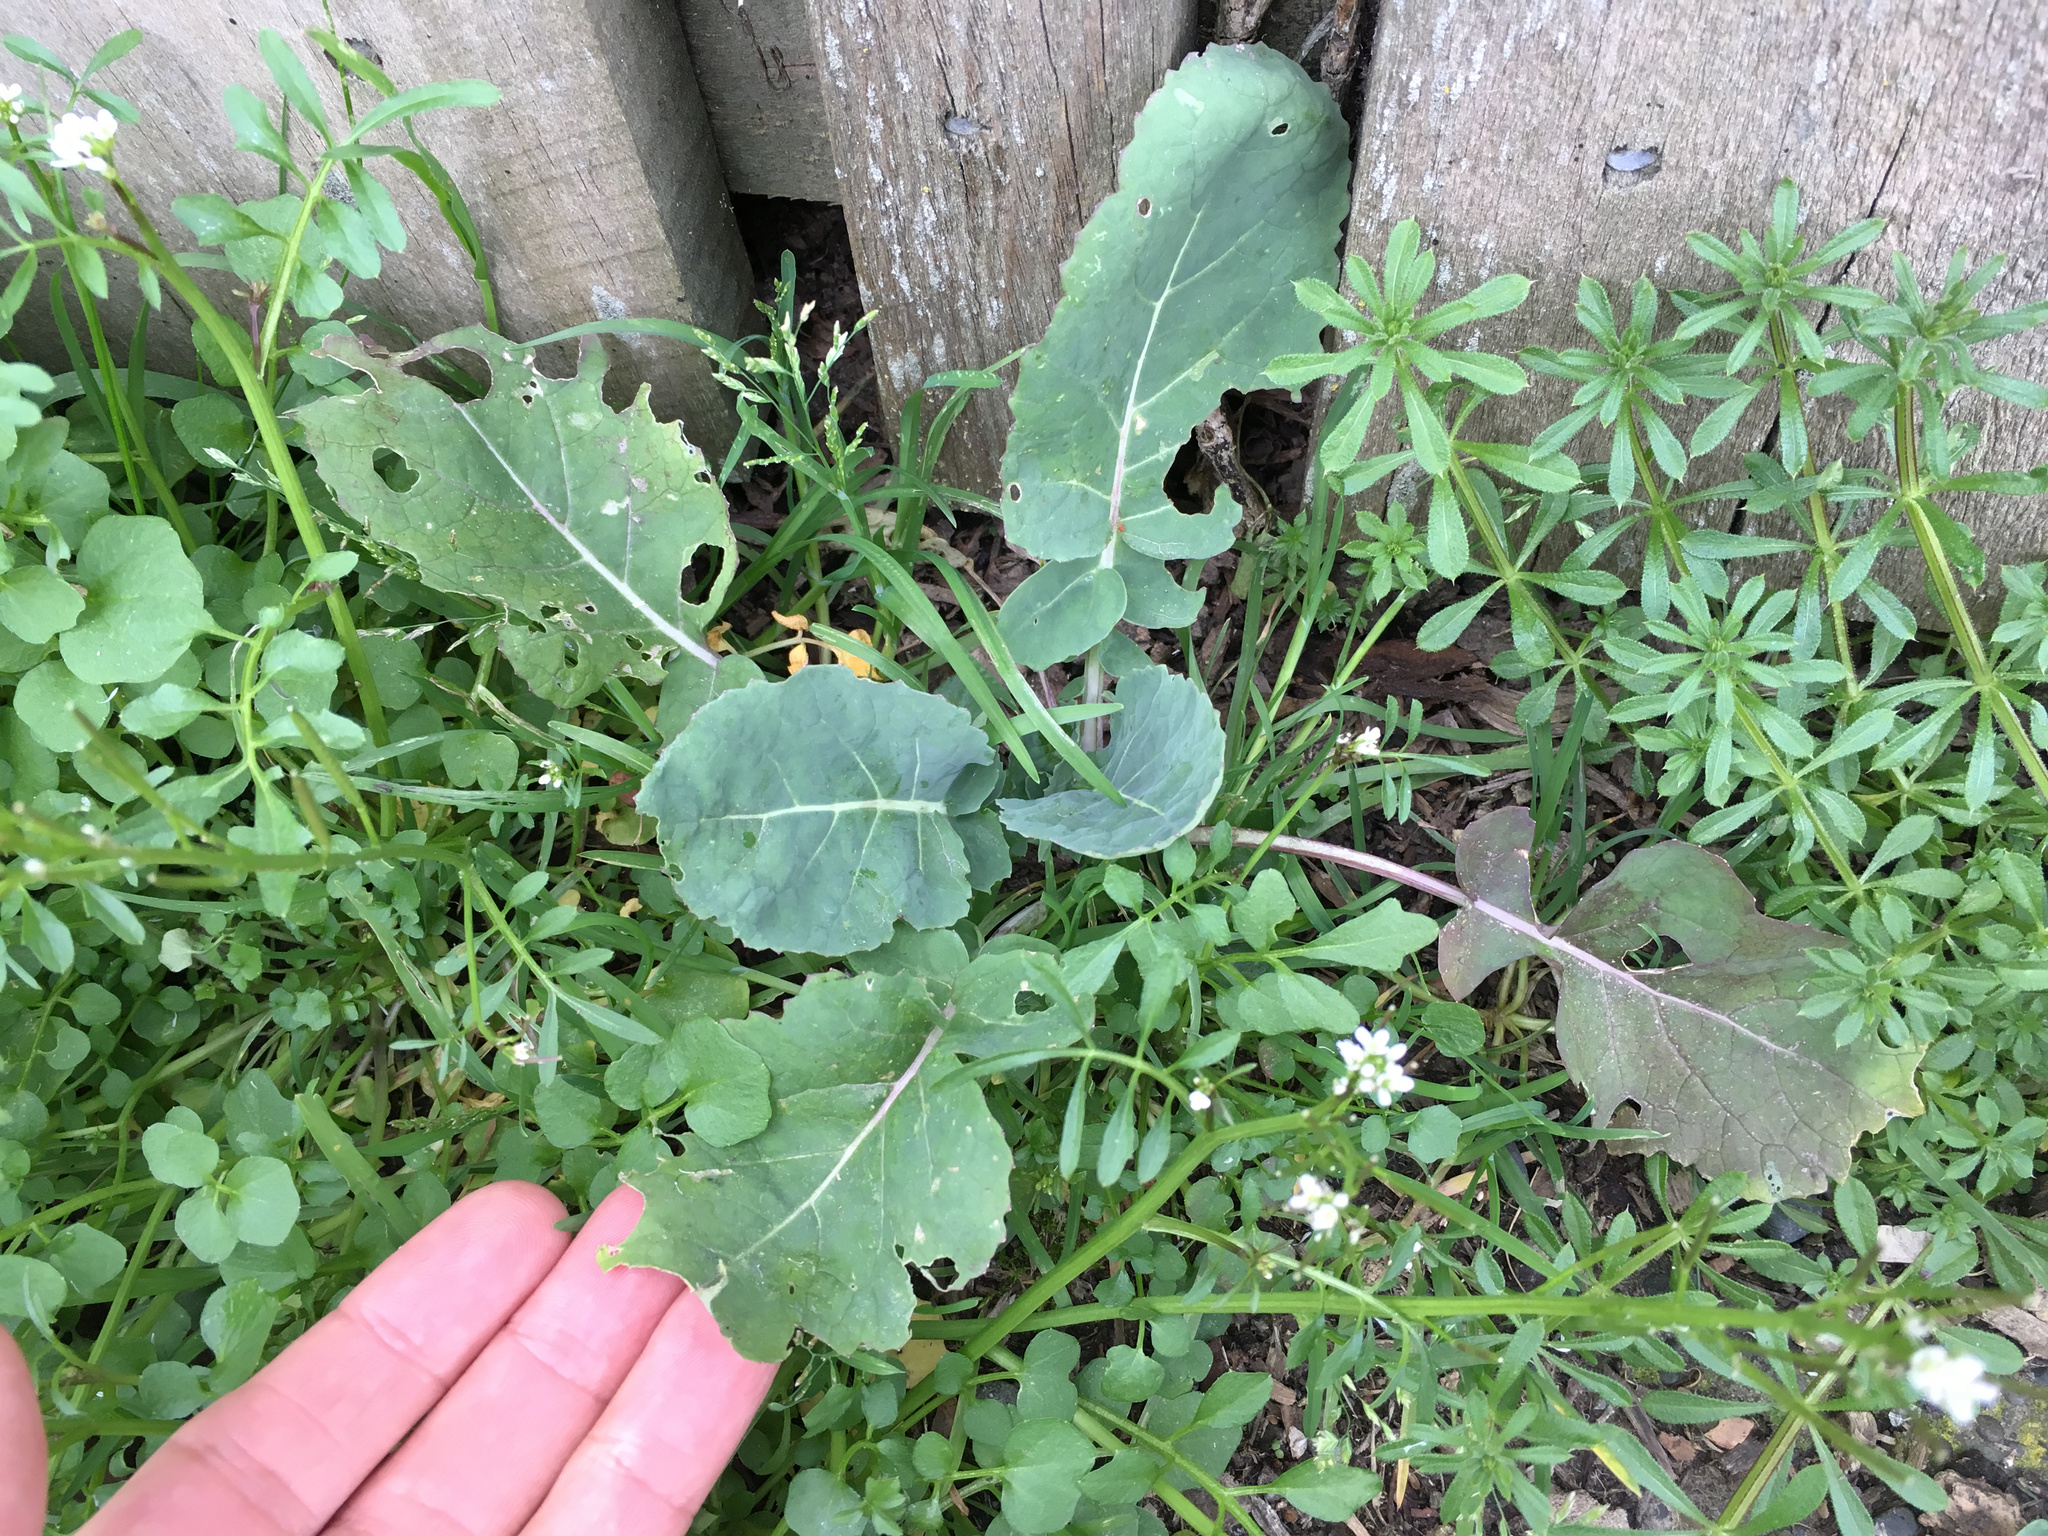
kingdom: Plantae
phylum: Tracheophyta
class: Magnoliopsida
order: Brassicales
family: Brassicaceae
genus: Brassica
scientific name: Brassica oleracea
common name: Cabbage
